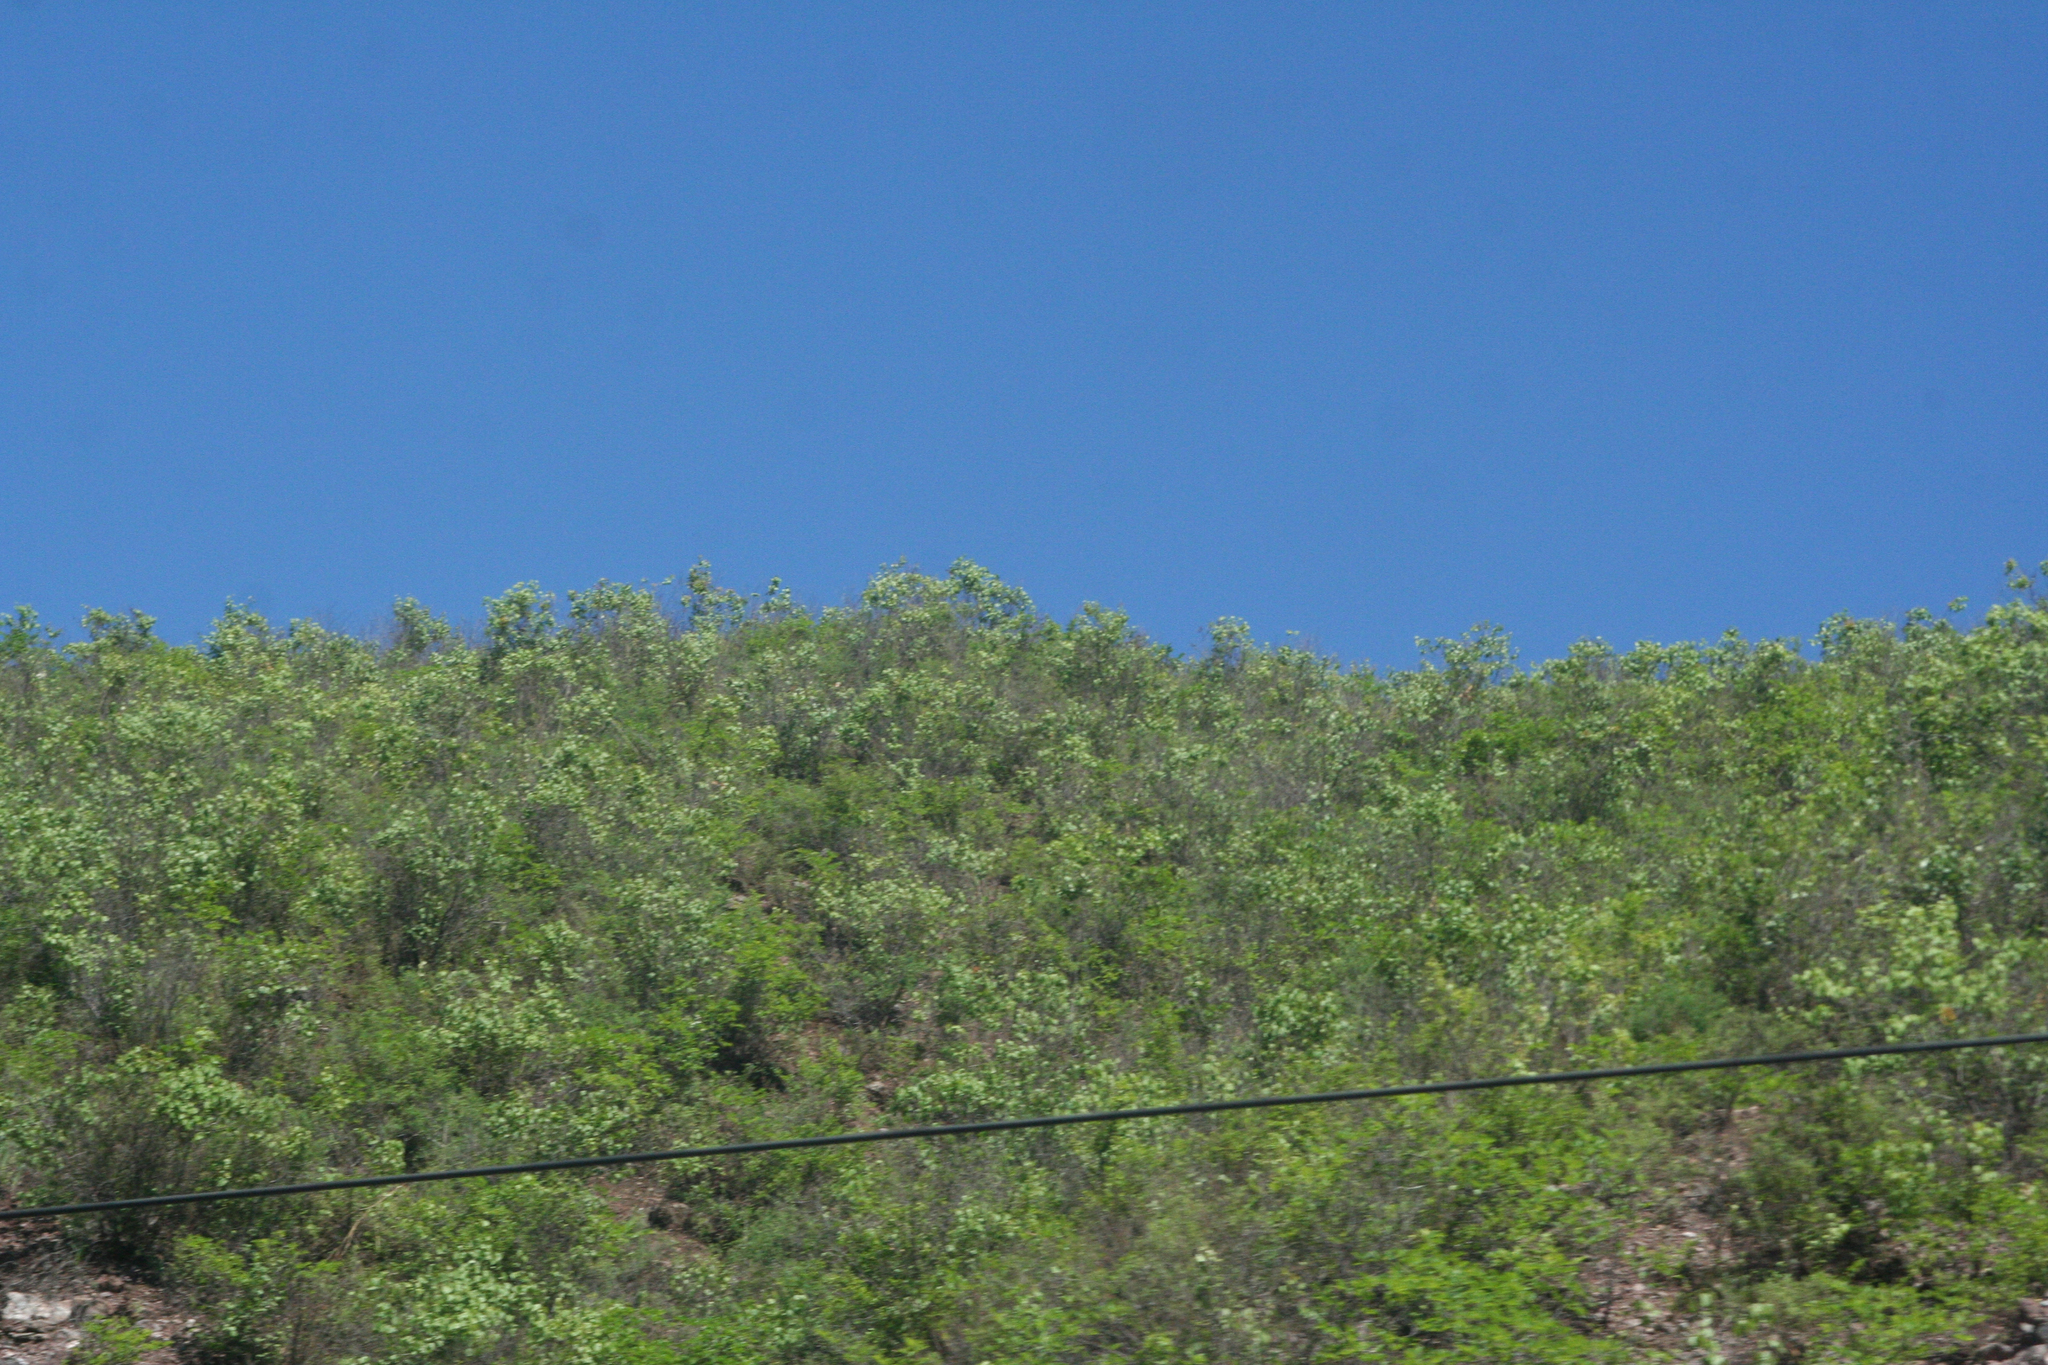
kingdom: Plantae
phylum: Tracheophyta
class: Magnoliopsida
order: Rosales
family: Rosaceae
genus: Prunus
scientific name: Prunus sibirica
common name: Siberian apricot
